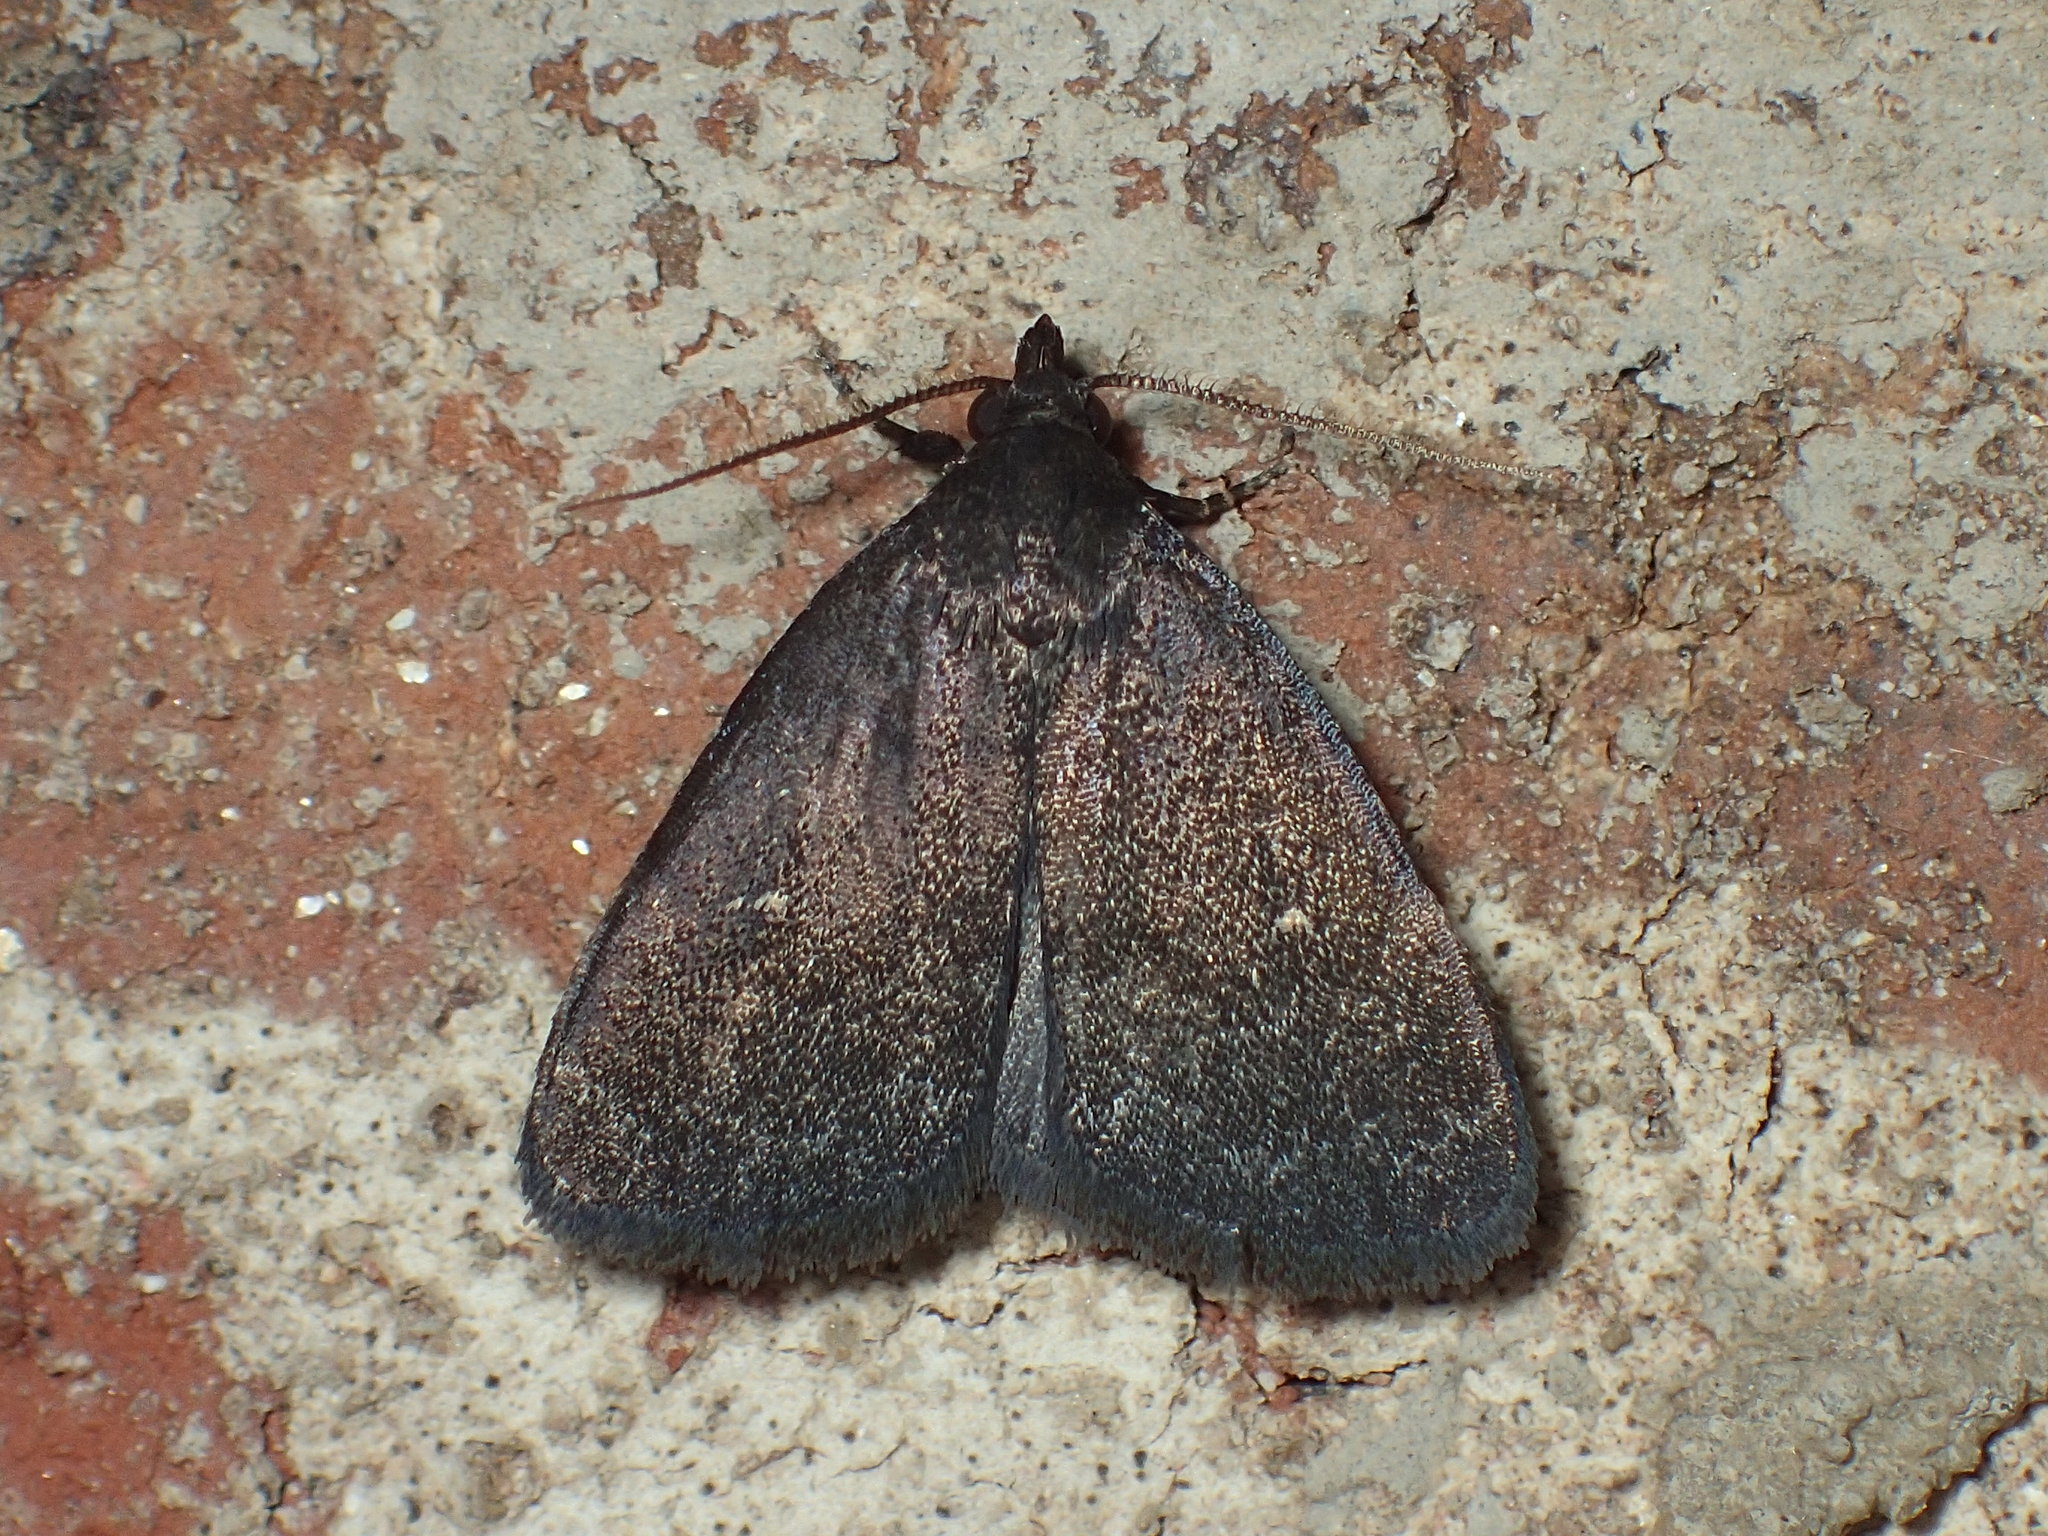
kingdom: Animalia
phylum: Arthropoda
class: Insecta
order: Lepidoptera
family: Erebidae
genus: Idia
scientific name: Idia rotundalis
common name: Rotund idia moth
